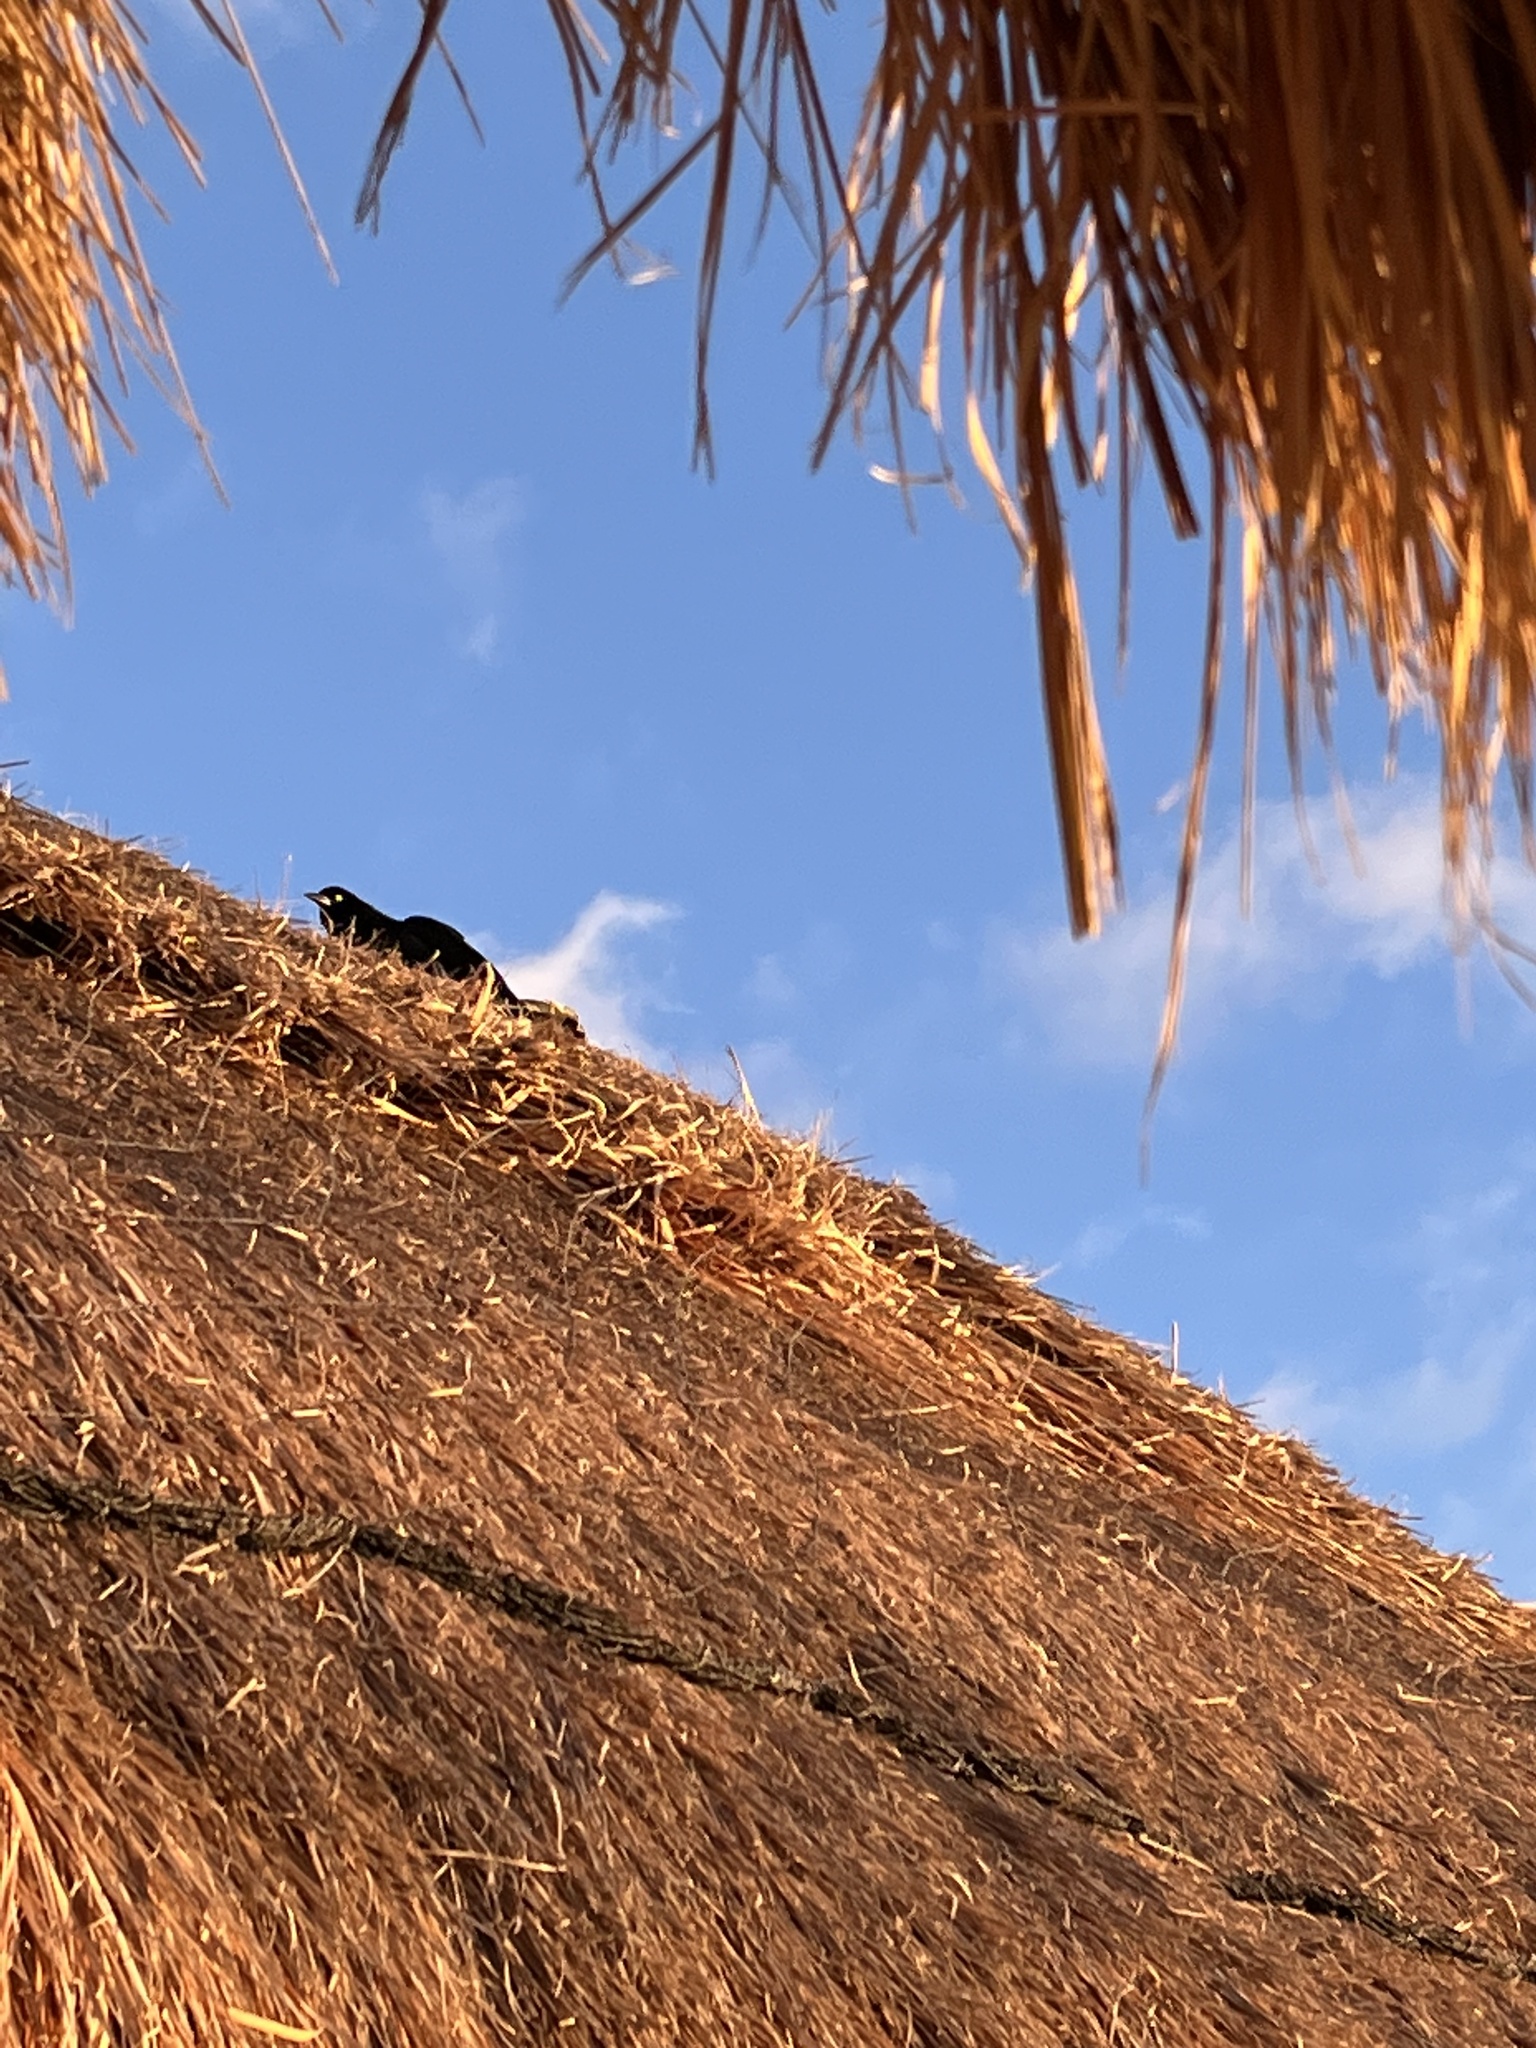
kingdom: Animalia
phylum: Chordata
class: Aves
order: Passeriformes
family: Icteridae
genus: Quiscalus
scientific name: Quiscalus mexicanus
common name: Great-tailed grackle
